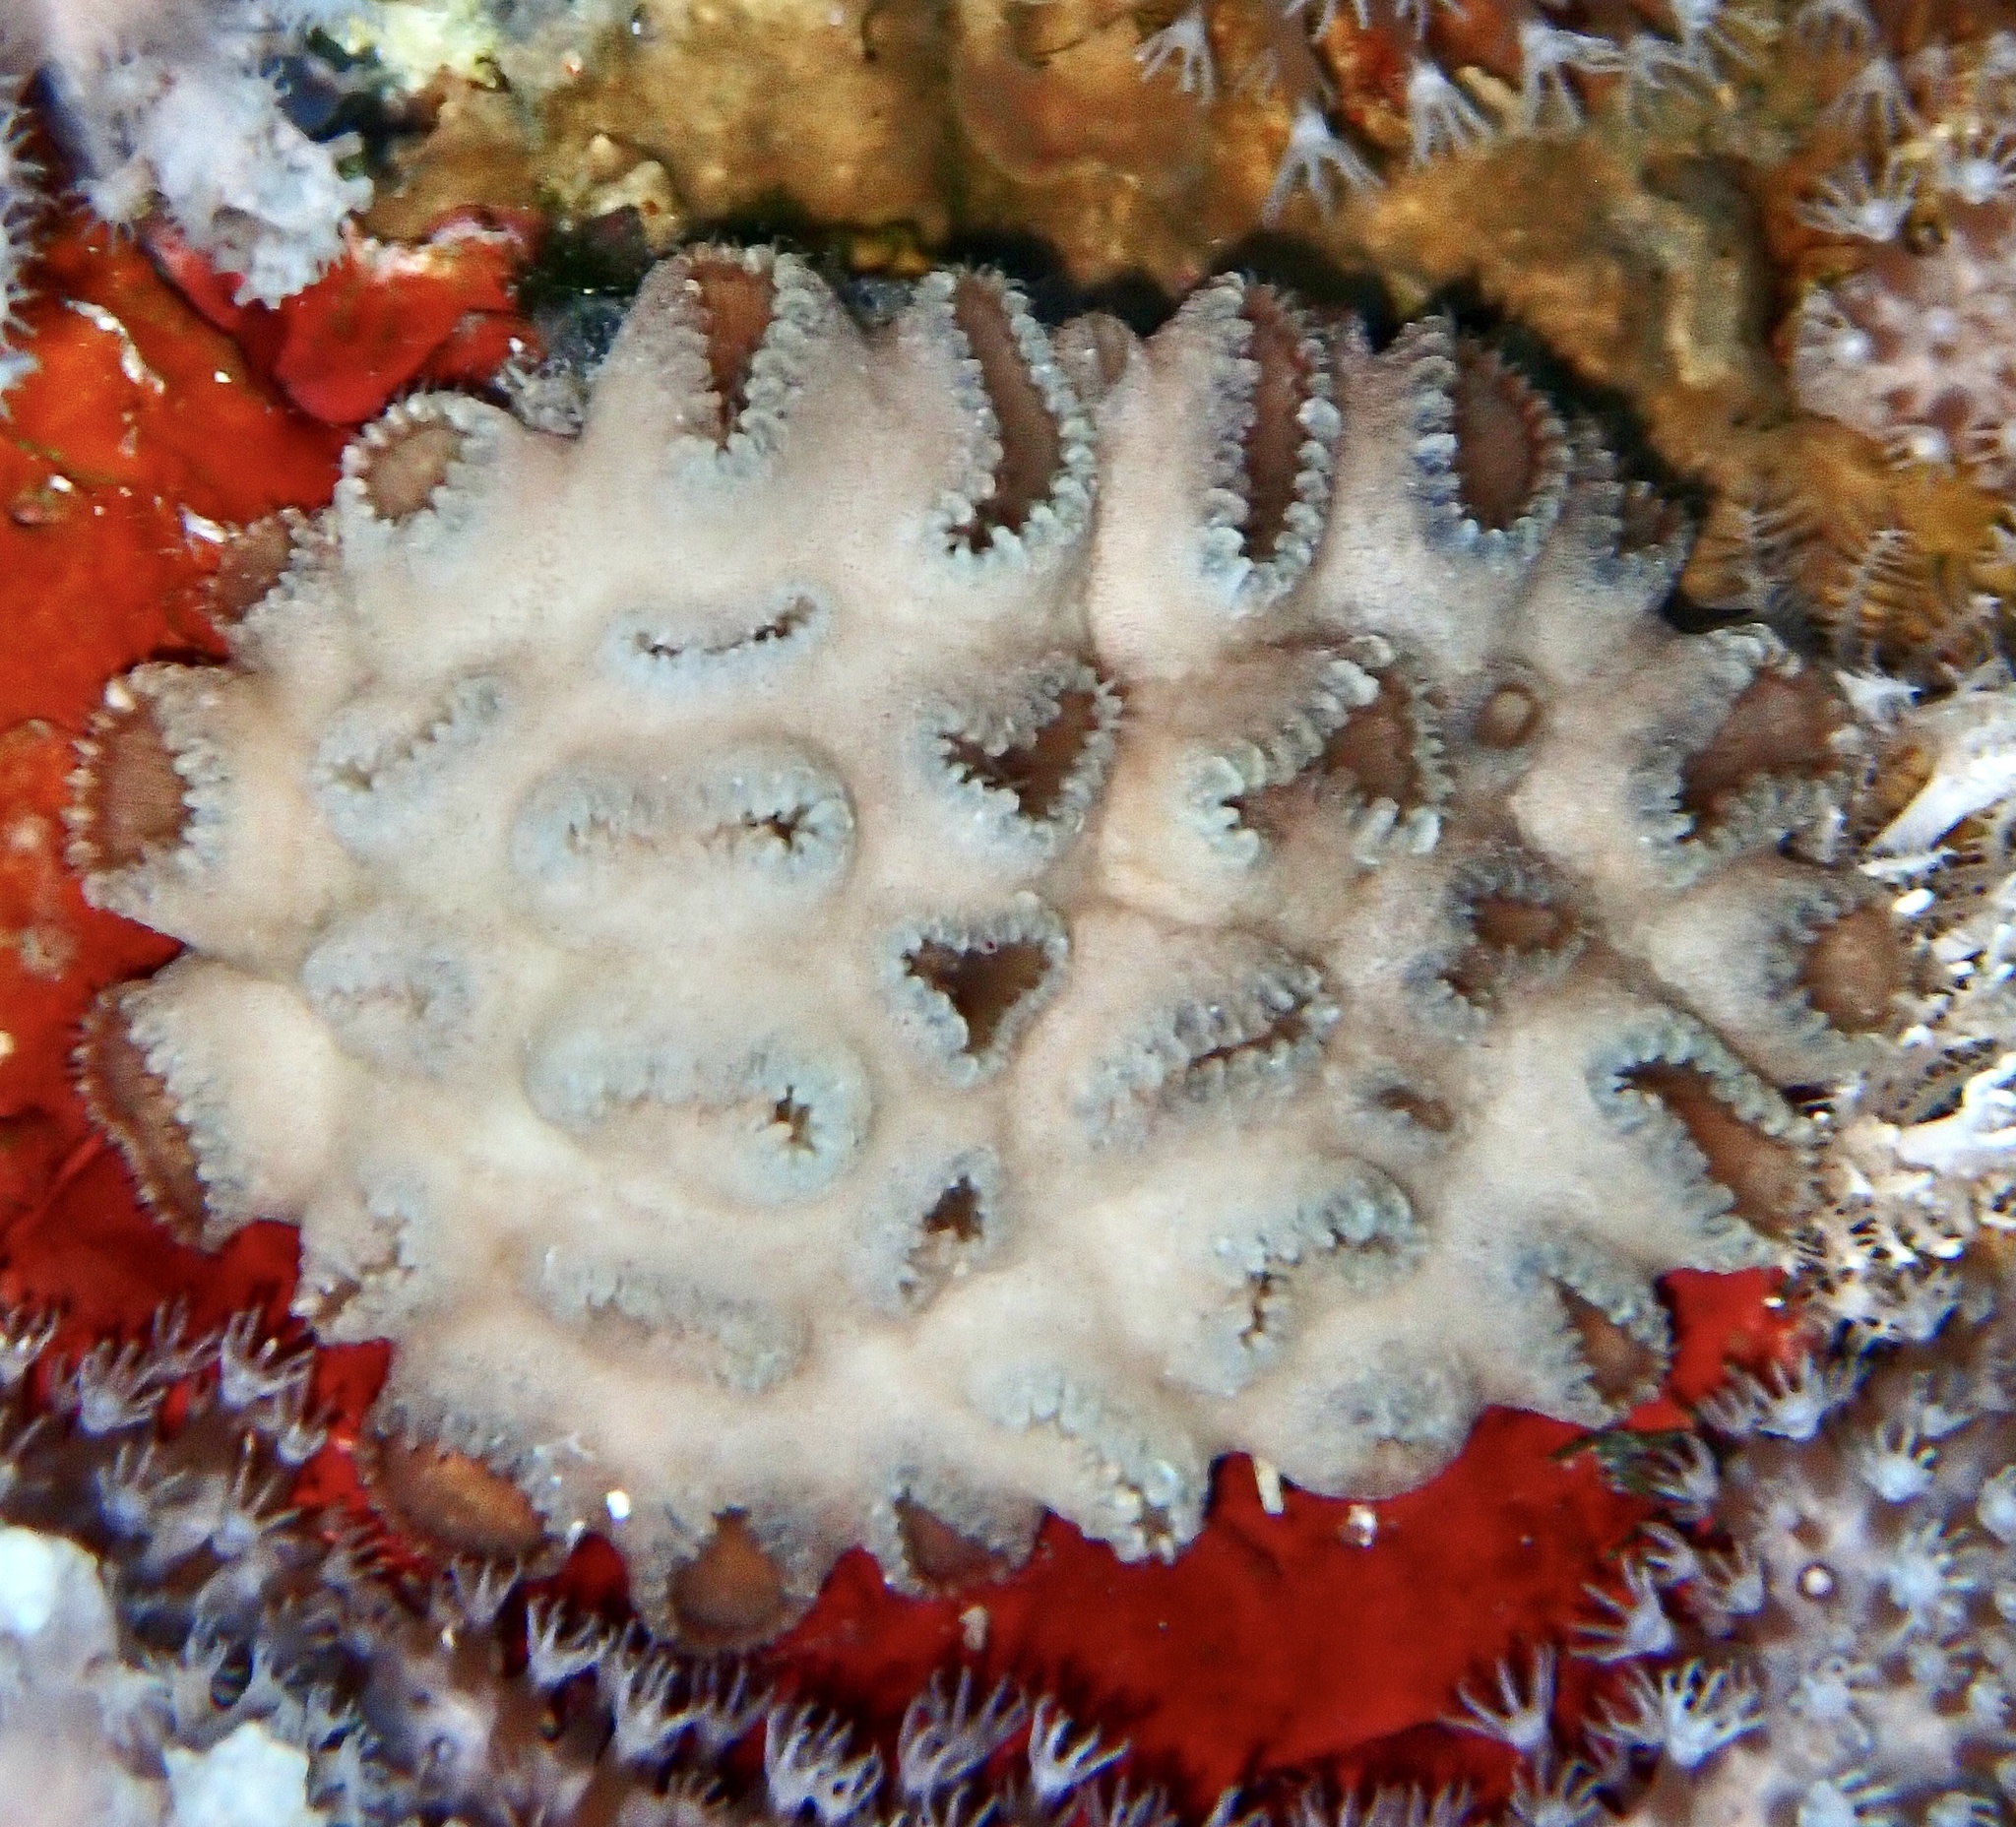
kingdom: Animalia
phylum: Cnidaria
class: Anthozoa
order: Zoantharia
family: Sphenopidae
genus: Palythoa
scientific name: Palythoa tuberculosa
